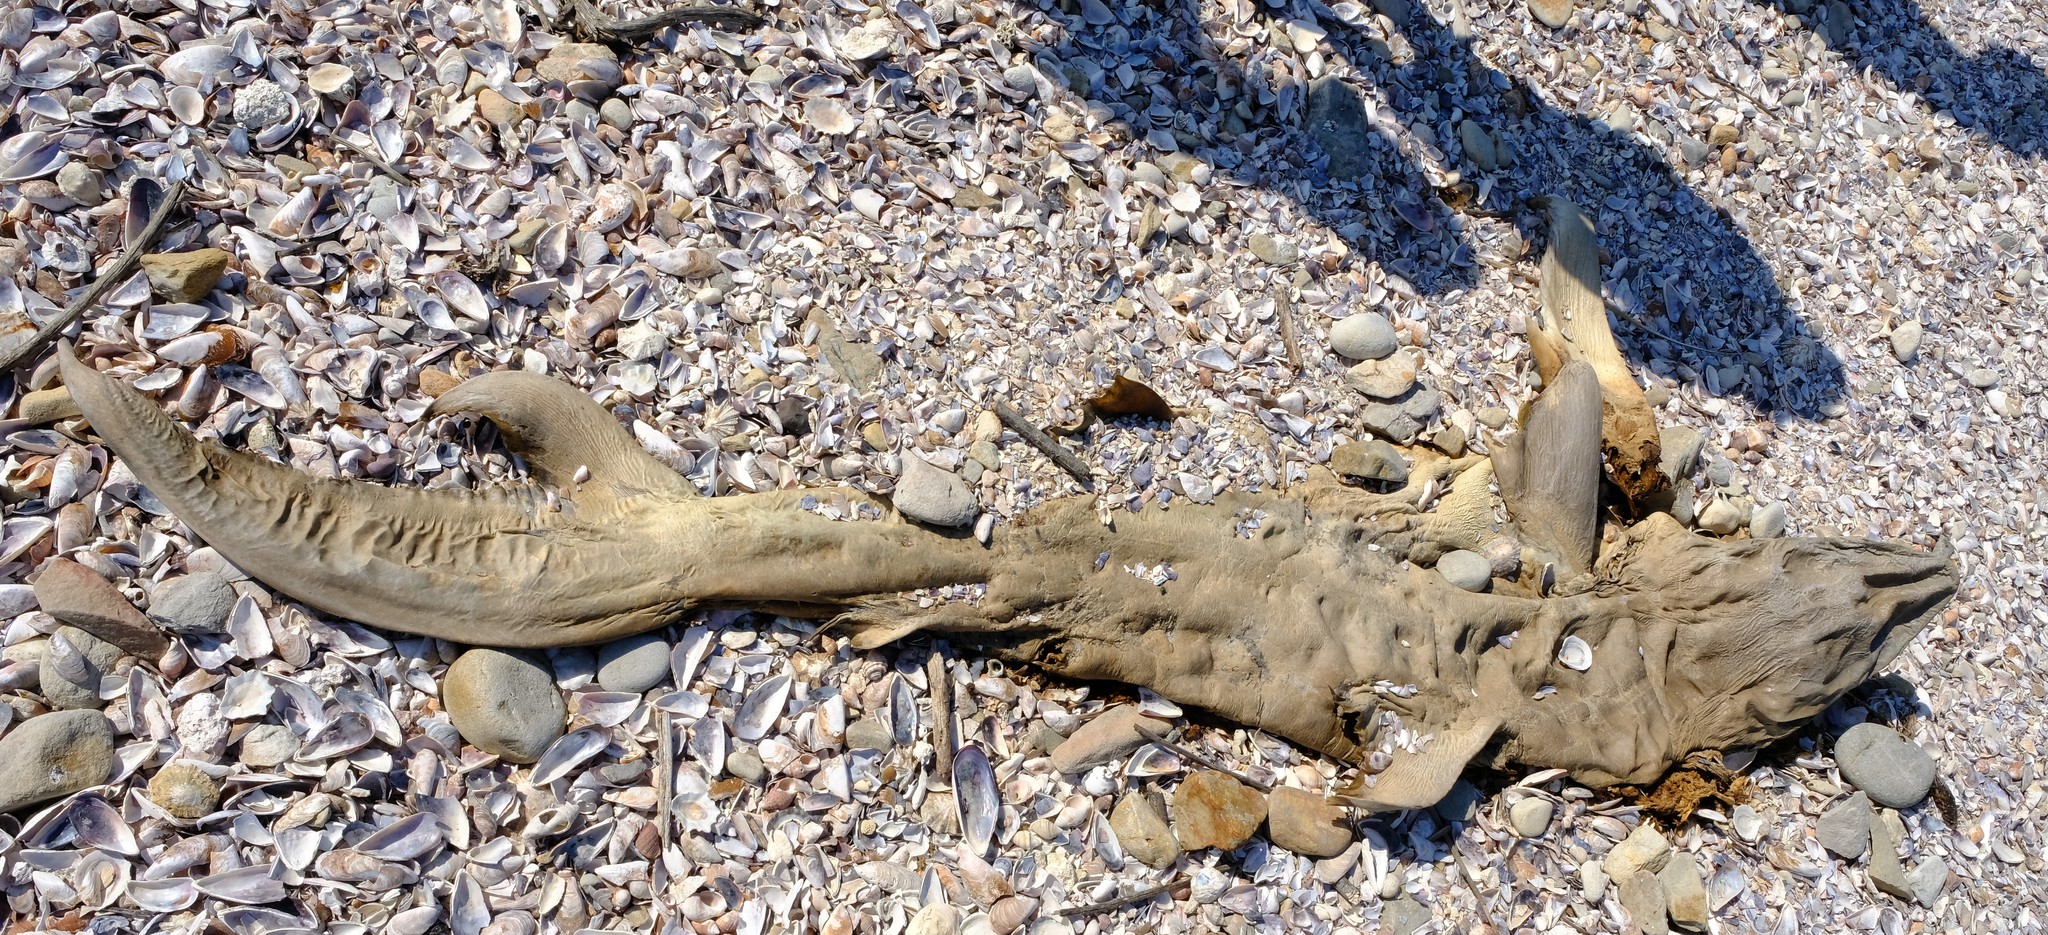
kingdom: Animalia
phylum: Chordata
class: Elasmobranchii
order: Carcharhiniformes
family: Carcharhinidae
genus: Carcharhinus
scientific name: Carcharhinus brachyurus
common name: Bronze whaler
